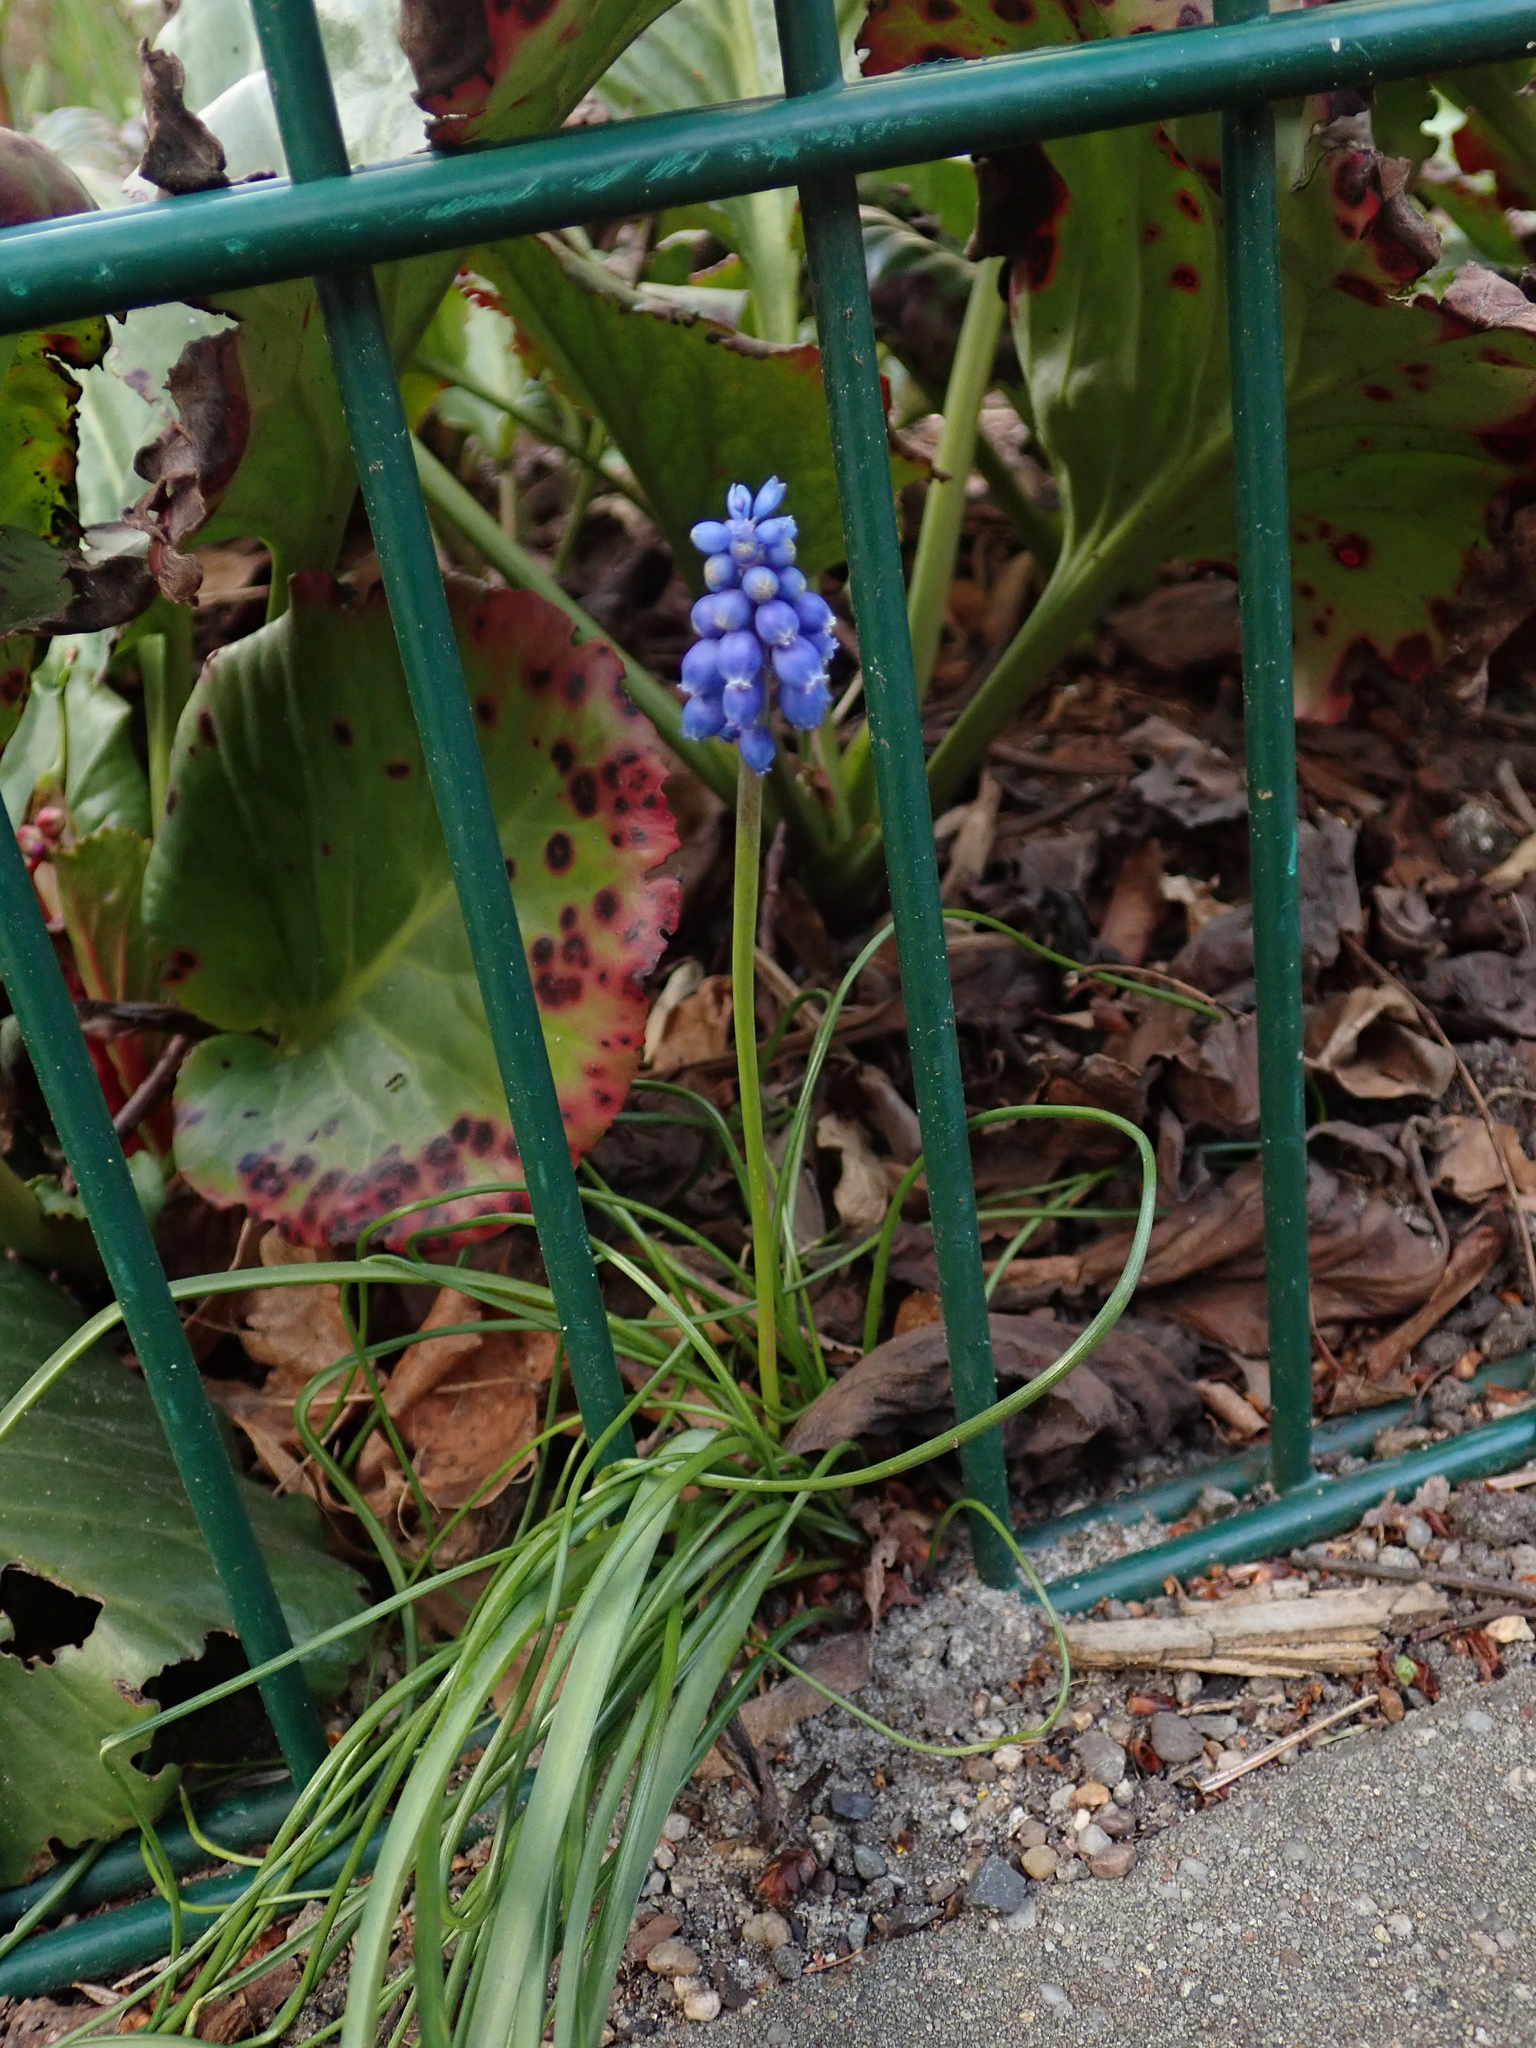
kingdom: Plantae
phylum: Tracheophyta
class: Liliopsida
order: Asparagales
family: Asparagaceae
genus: Muscari
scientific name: Muscari armeniacum
